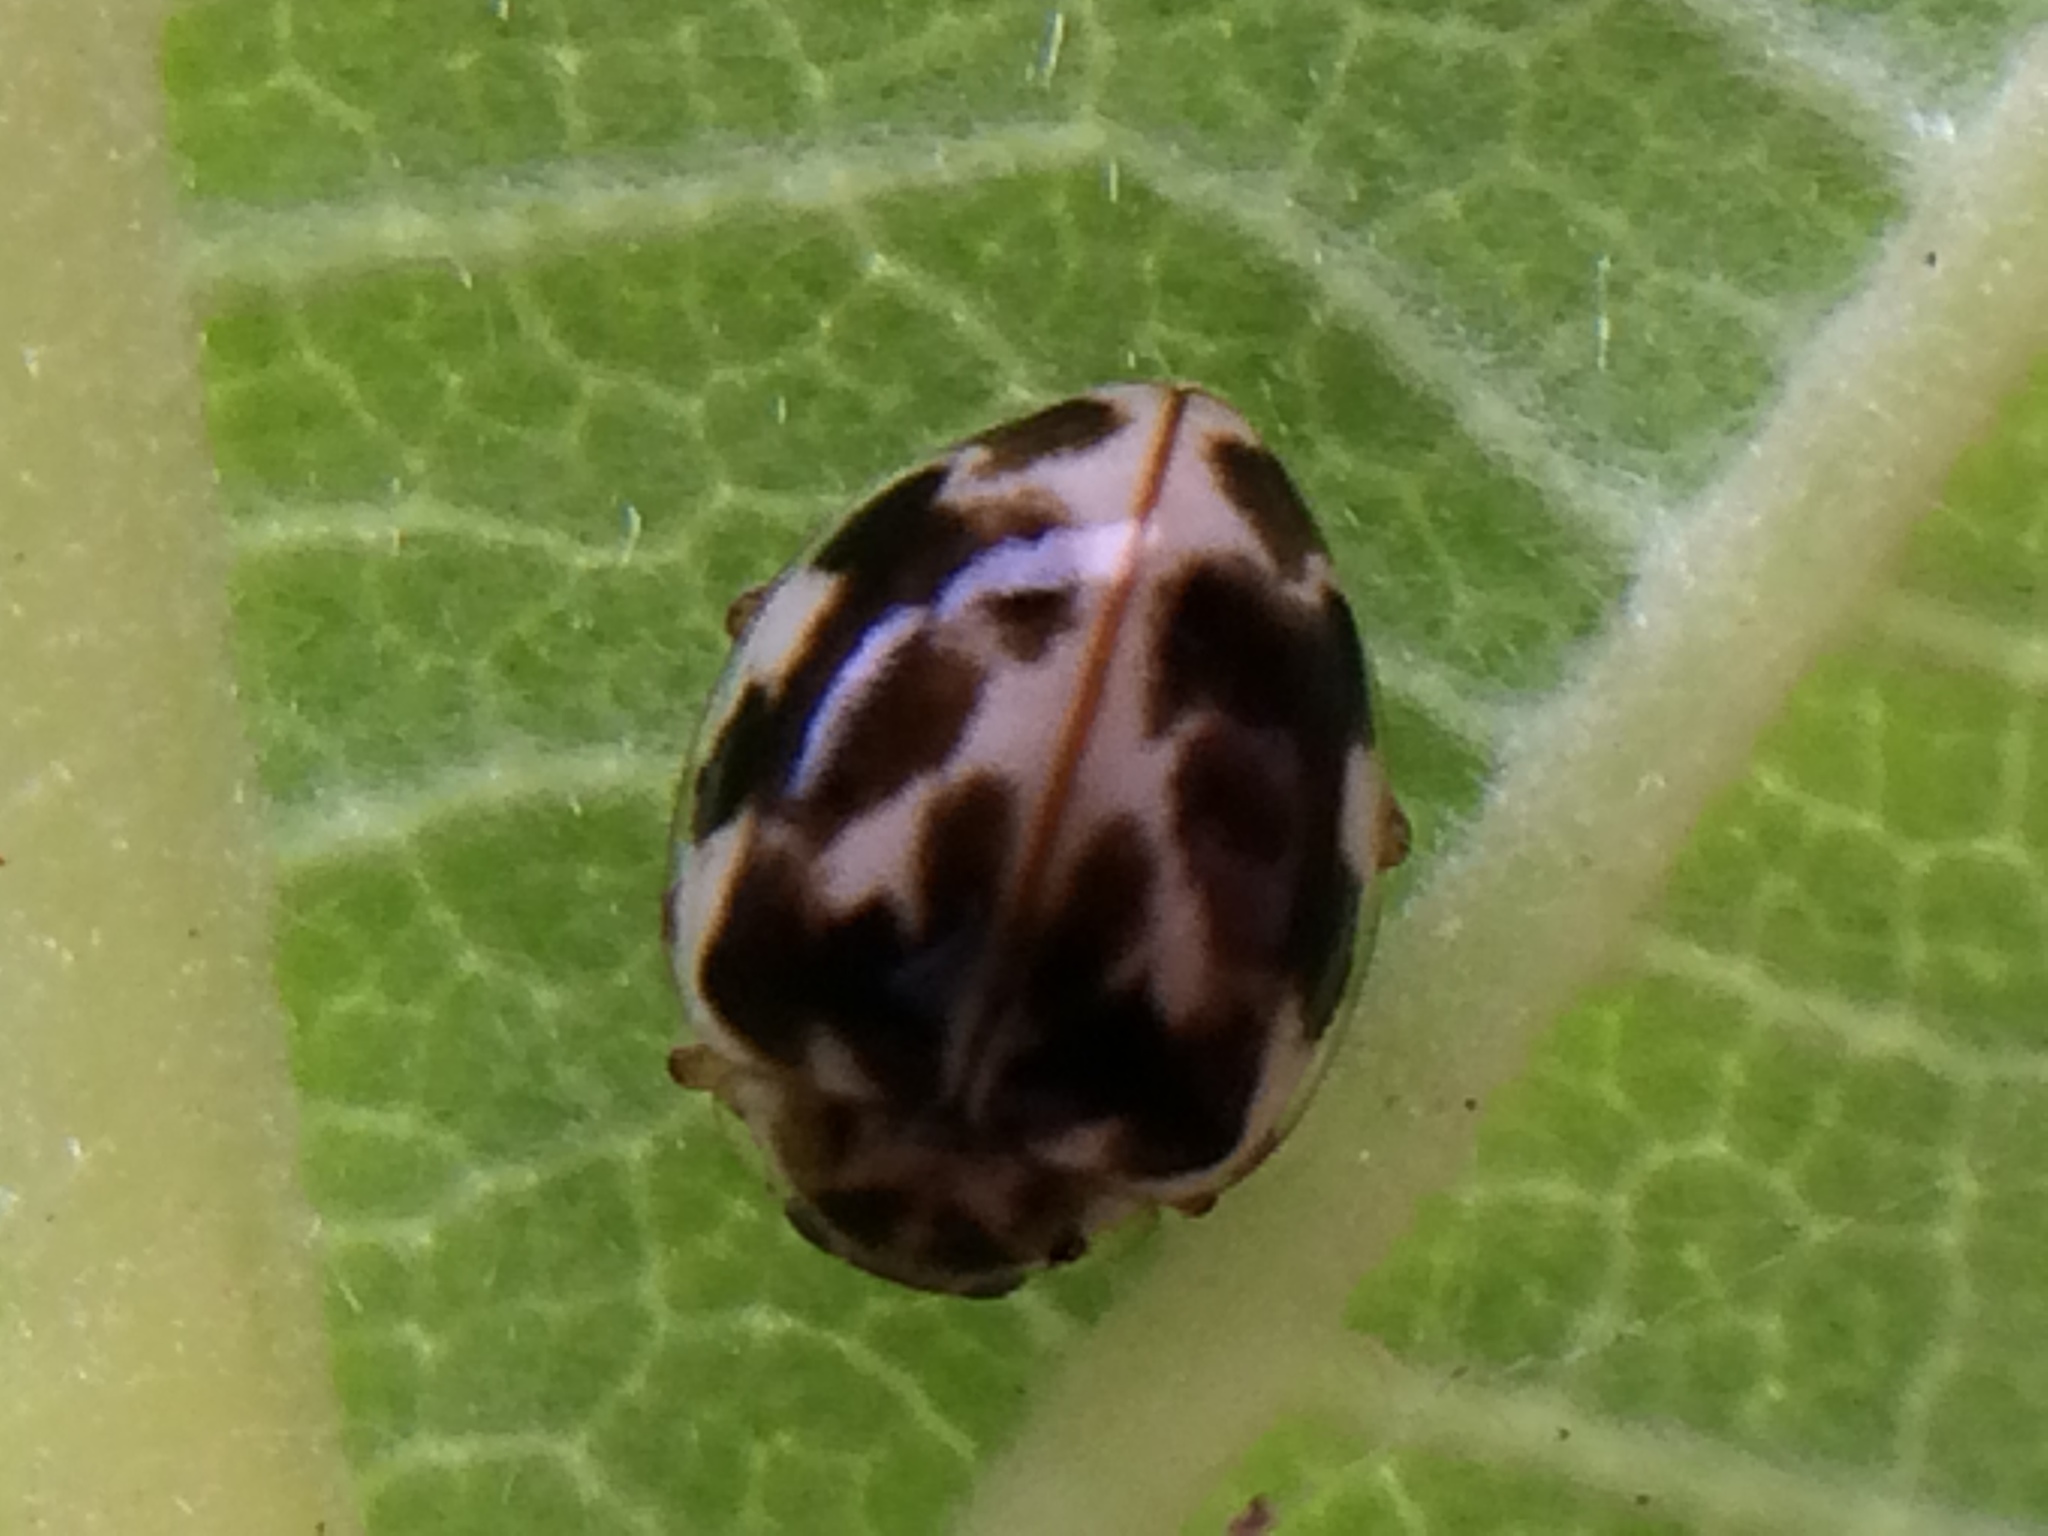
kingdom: Animalia
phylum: Arthropoda
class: Insecta
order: Coleoptera
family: Coccinellidae
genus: Psyllobora
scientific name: Psyllobora vigintimaculata
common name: Ladybird beetle
